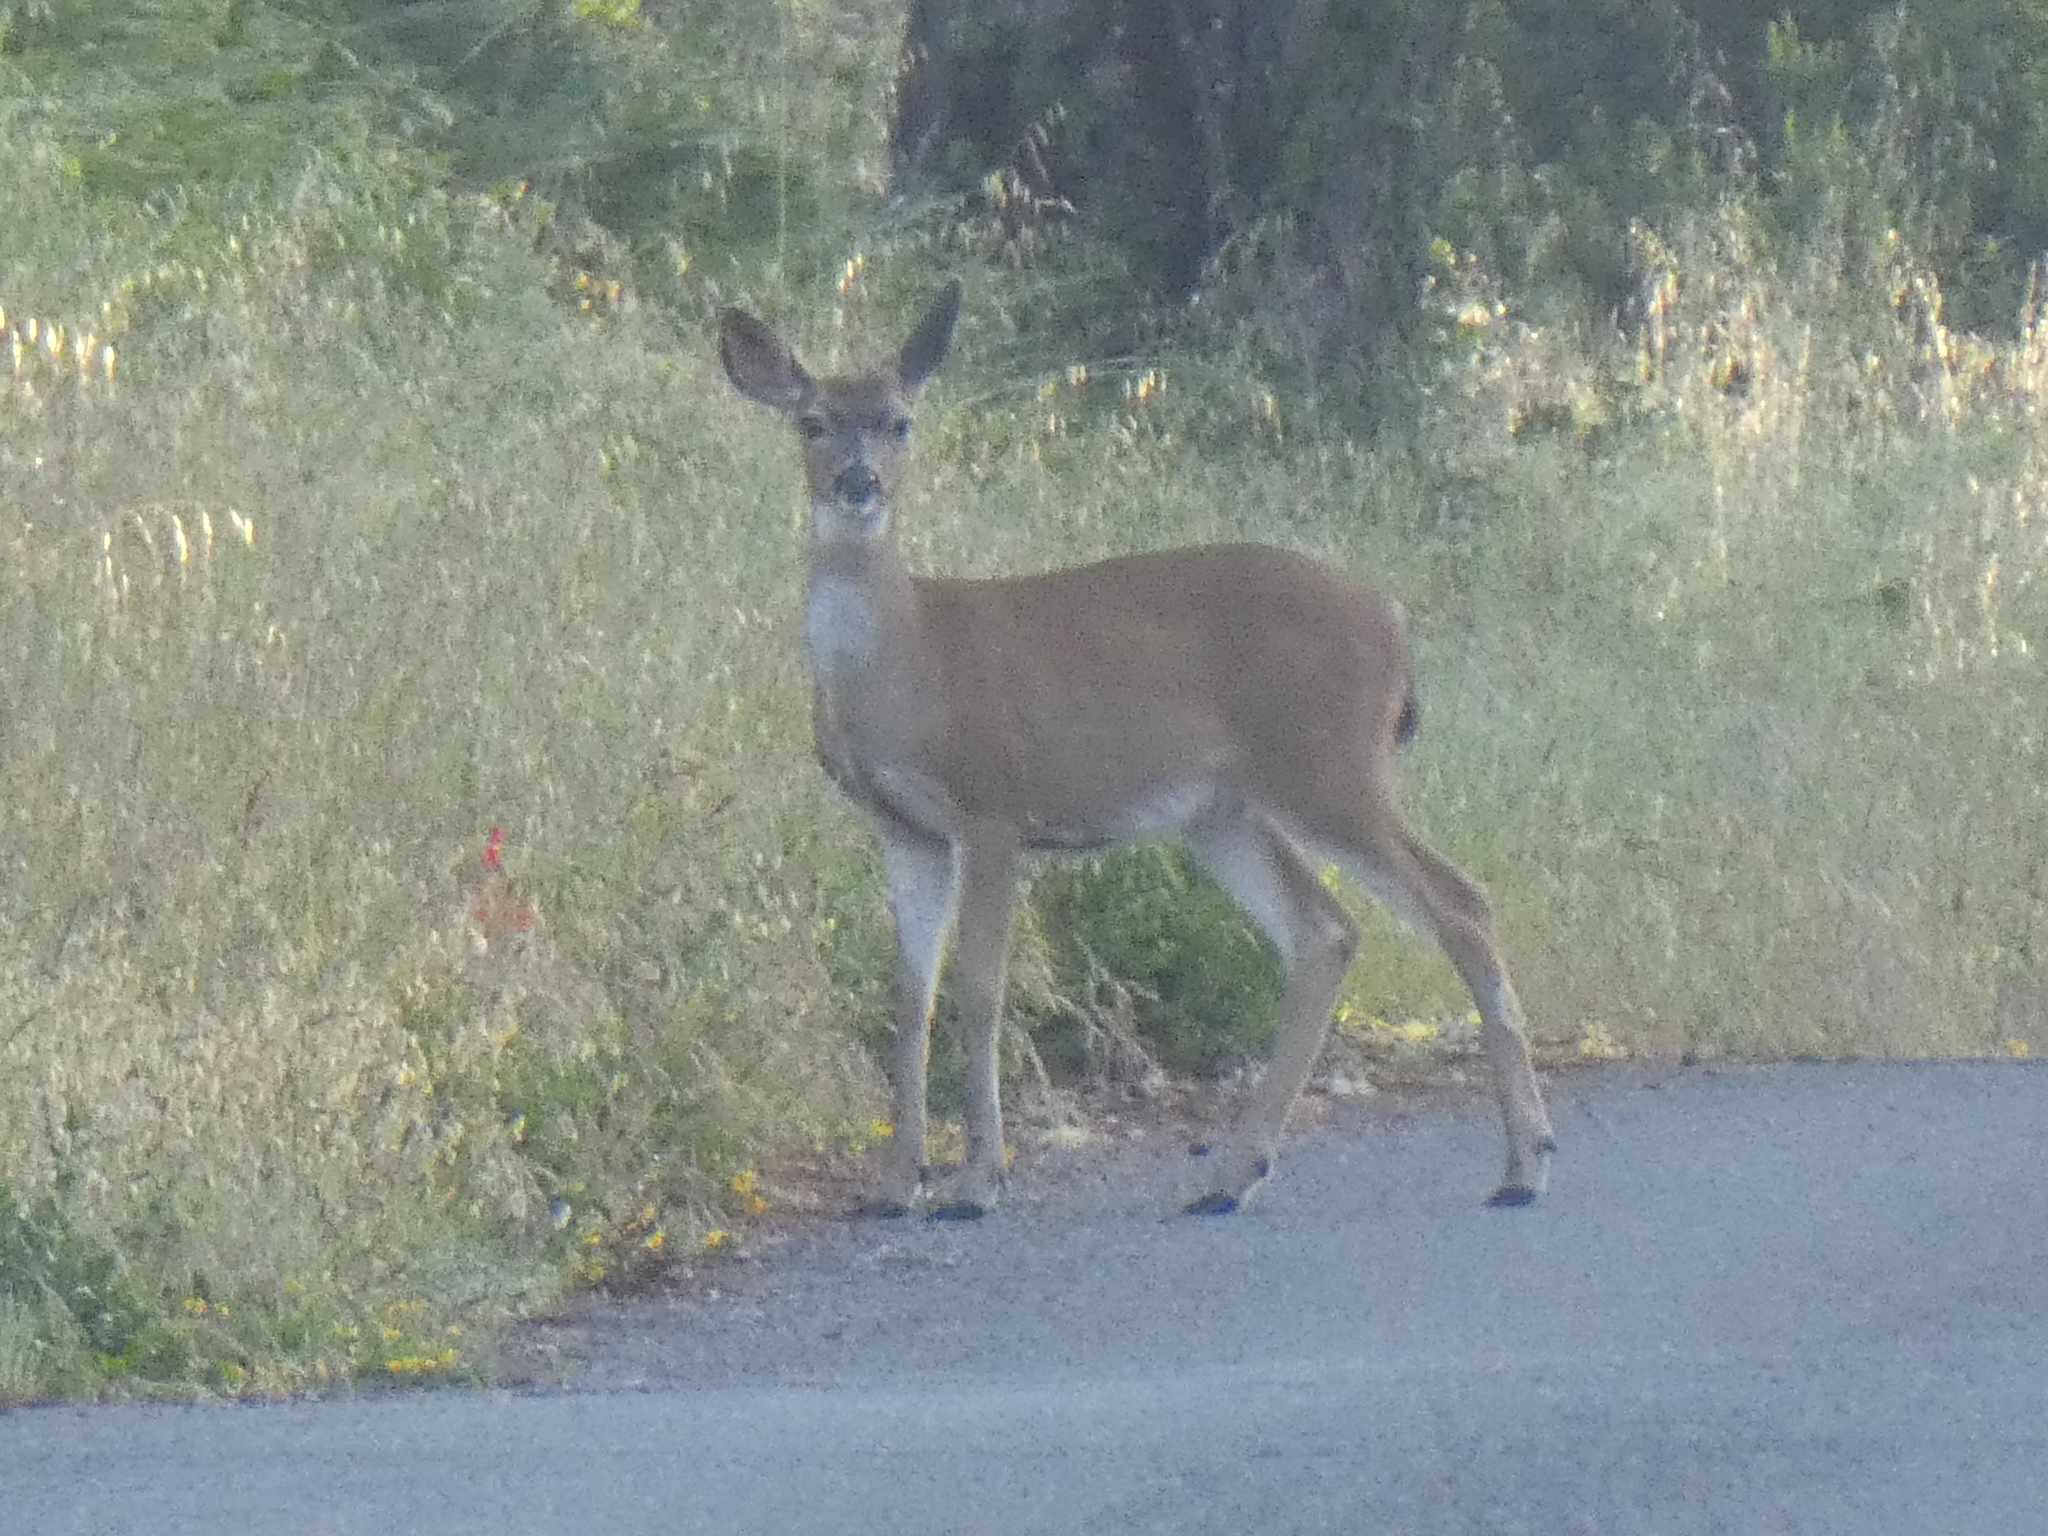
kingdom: Animalia
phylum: Chordata
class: Mammalia
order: Artiodactyla
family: Cervidae
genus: Odocoileus
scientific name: Odocoileus hemionus
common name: Mule deer
